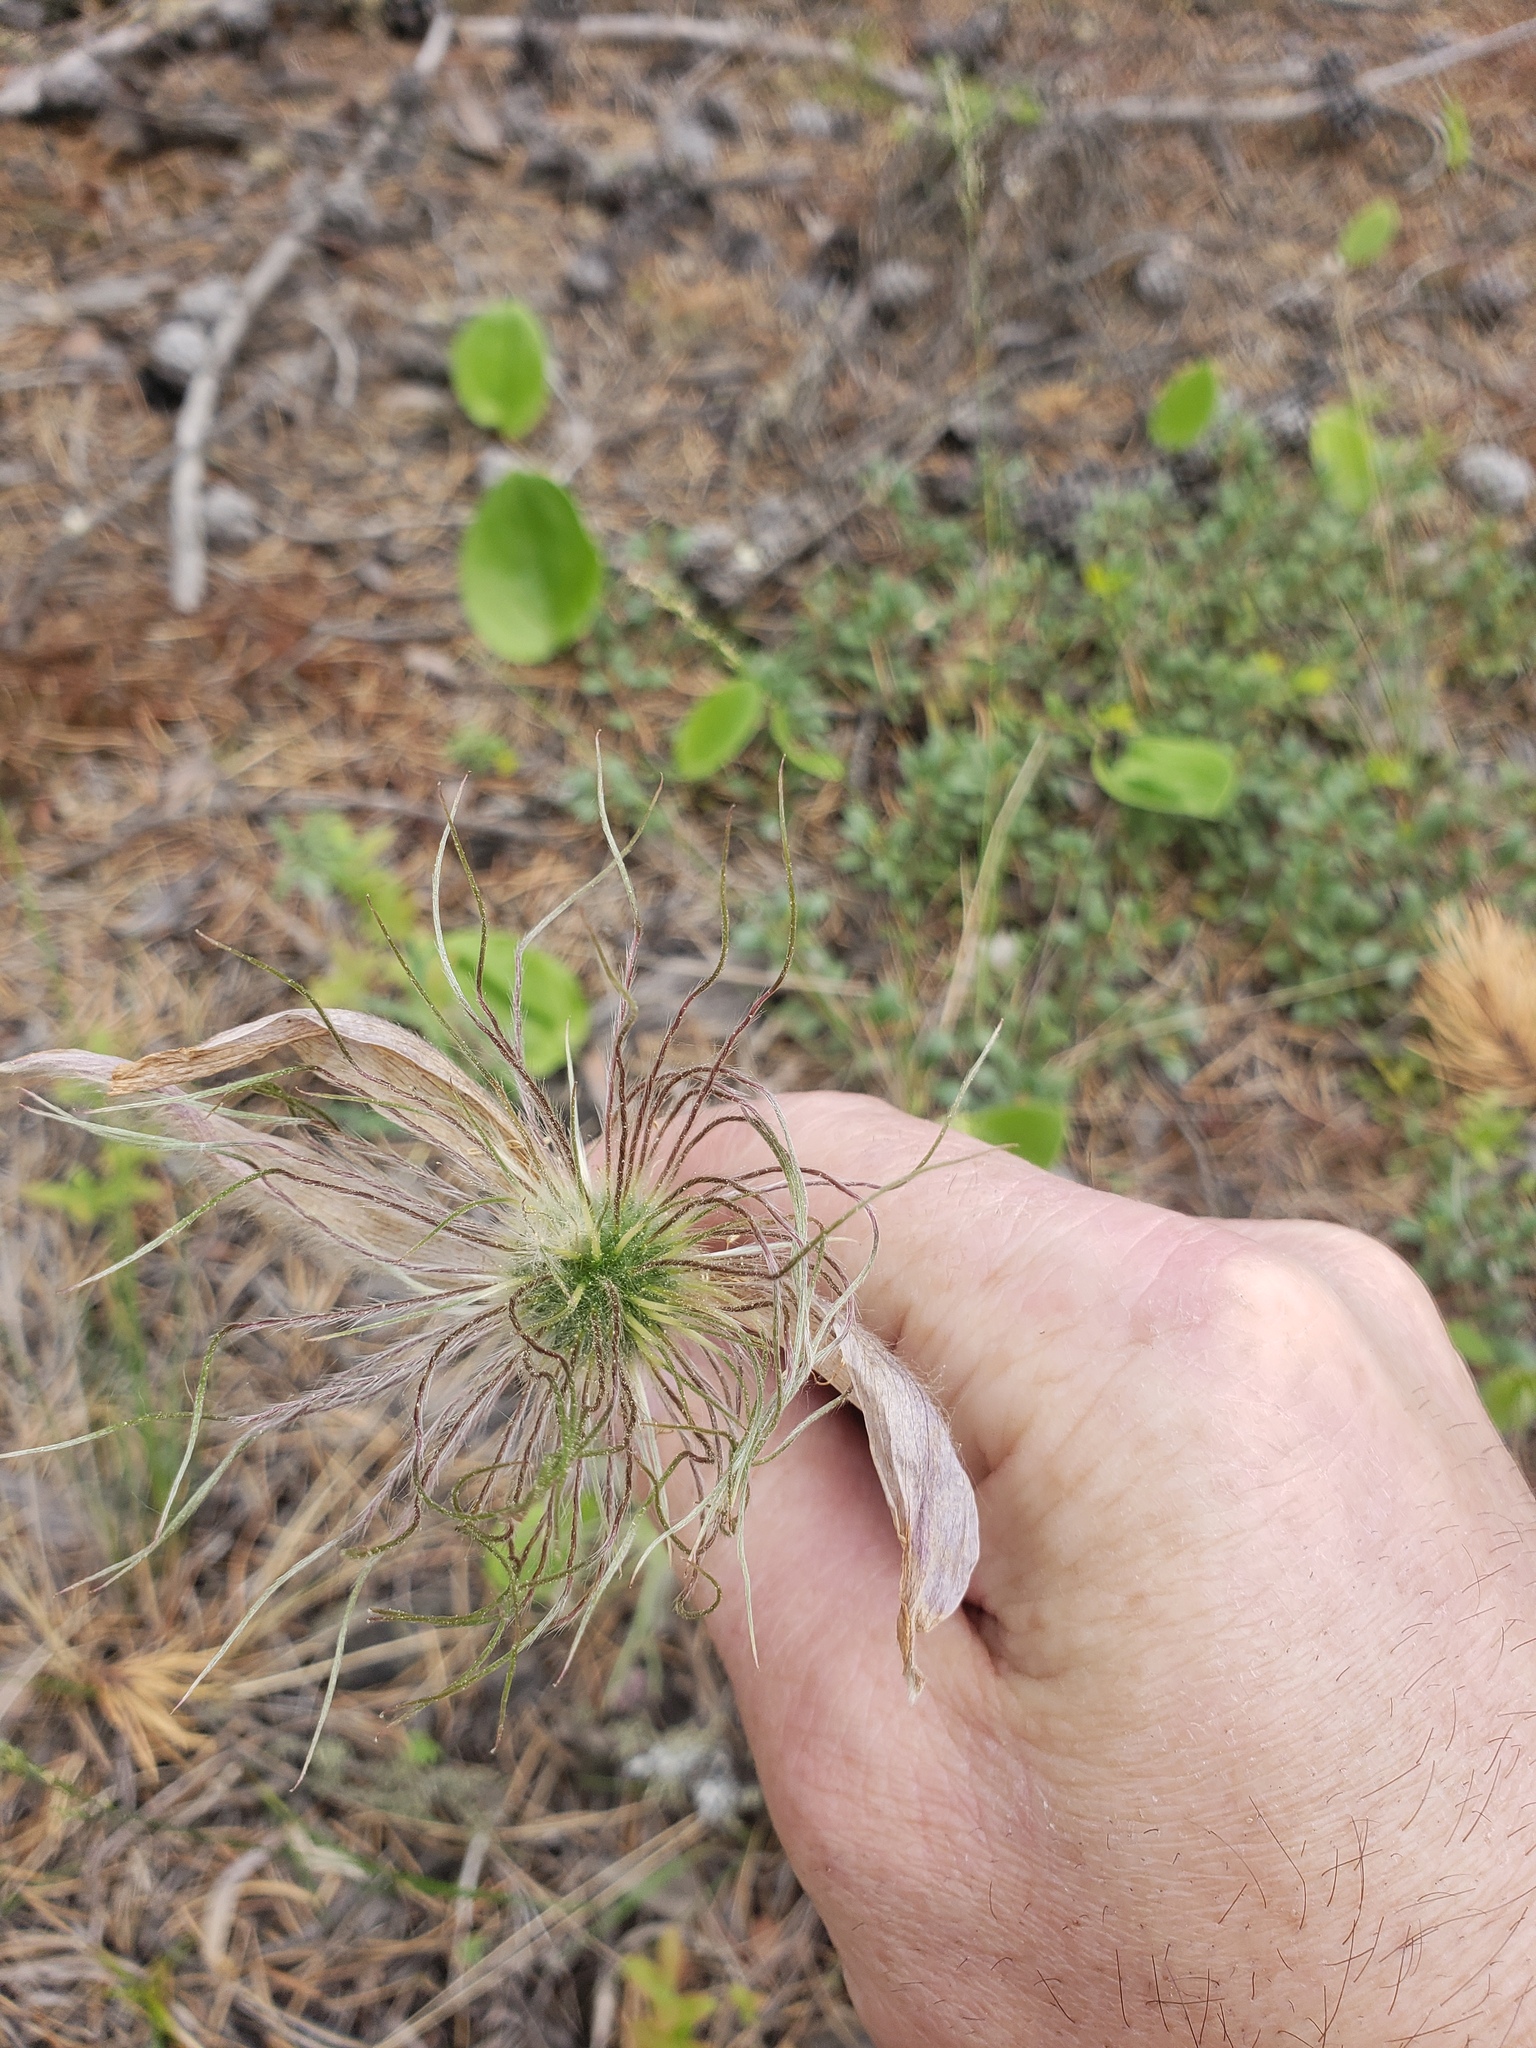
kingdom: Plantae
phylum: Tracheophyta
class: Magnoliopsida
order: Ranunculales
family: Ranunculaceae
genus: Pulsatilla
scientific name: Pulsatilla nuttalliana
